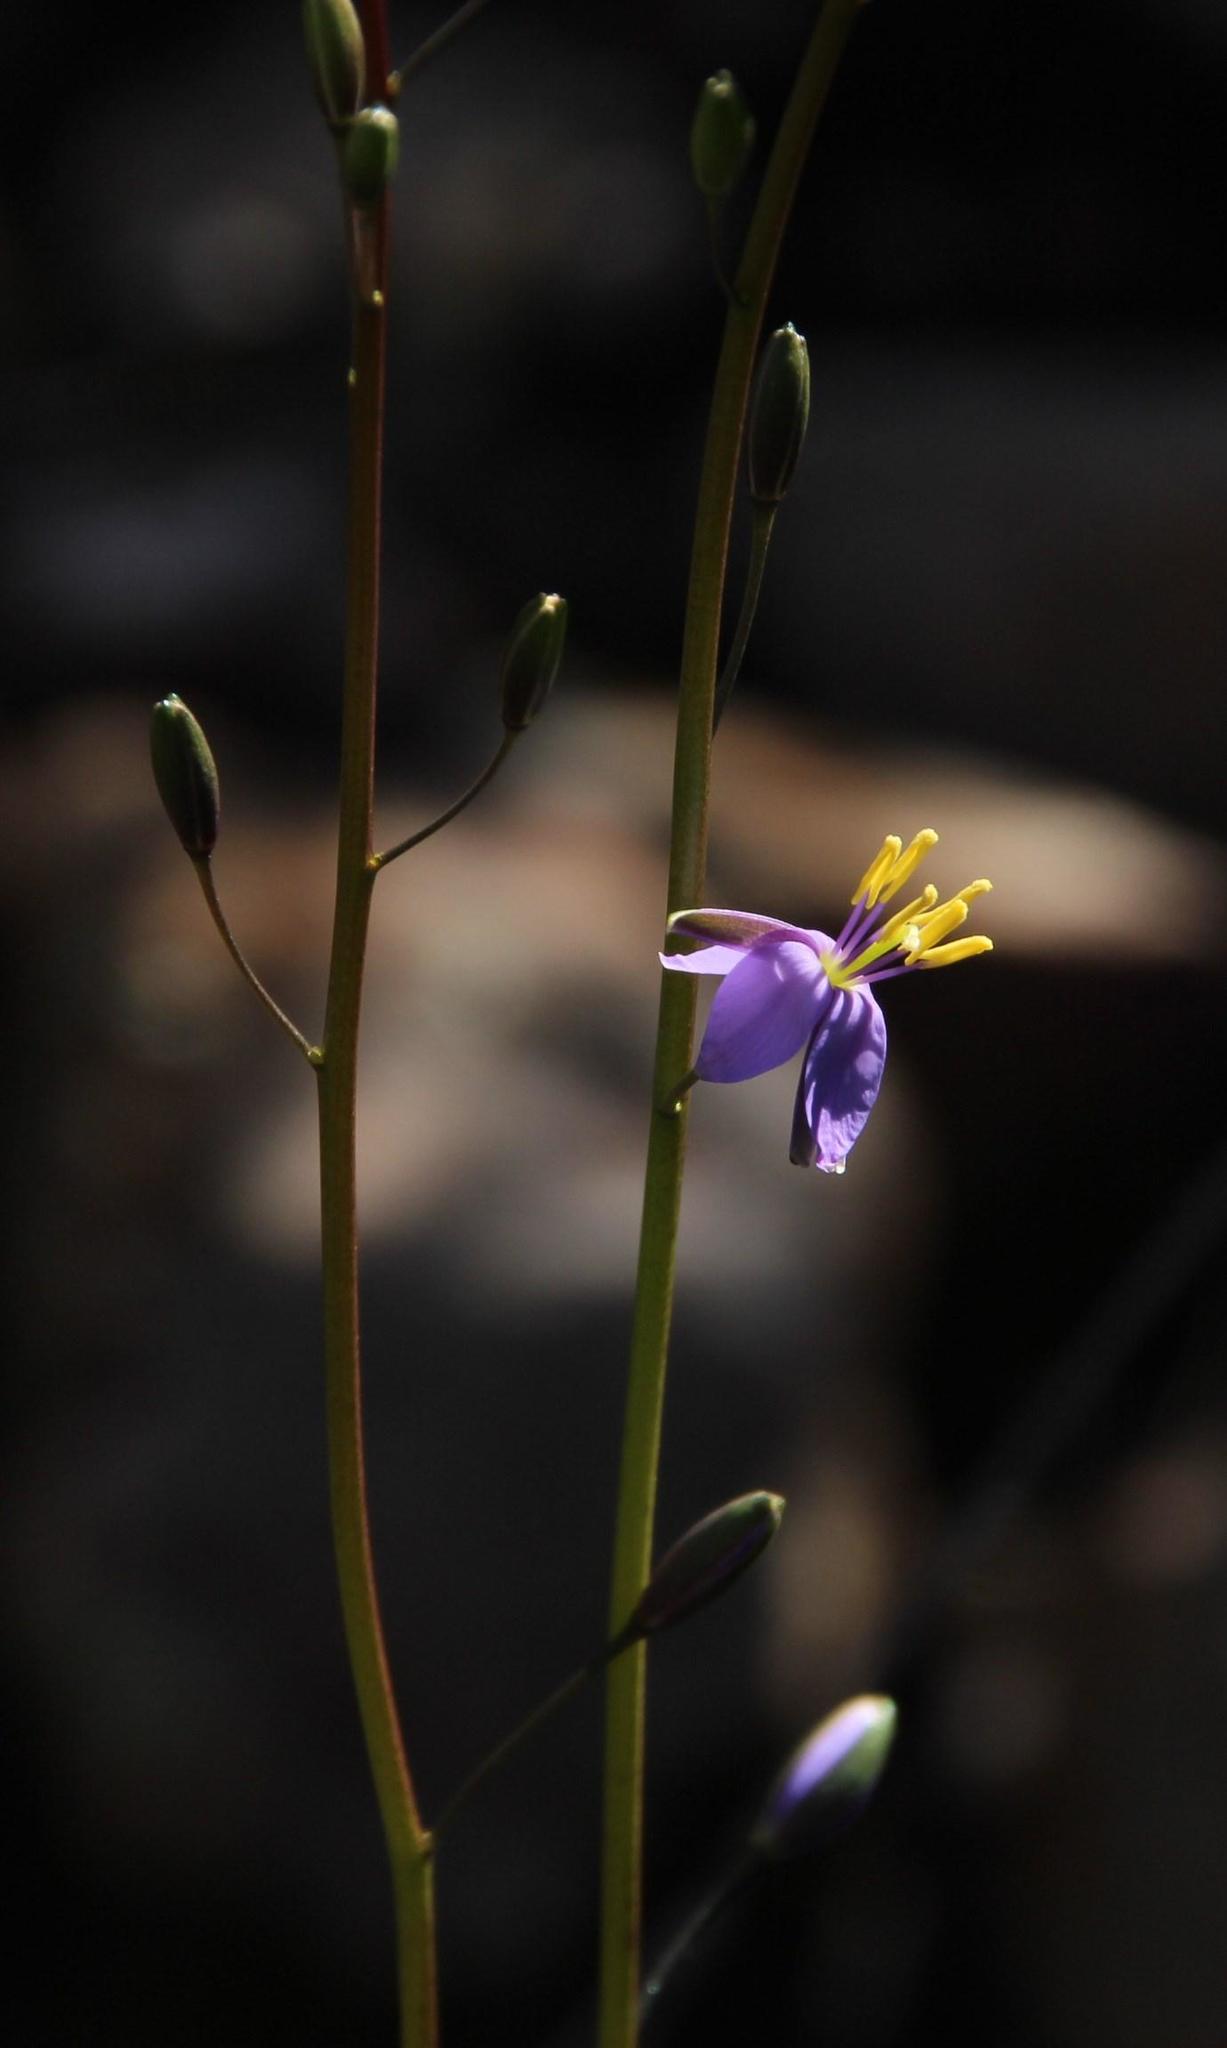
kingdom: Plantae
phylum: Tracheophyta
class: Magnoliopsida
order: Brassicales
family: Brassicaceae
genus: Heliophila
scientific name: Heliophila cornuta
